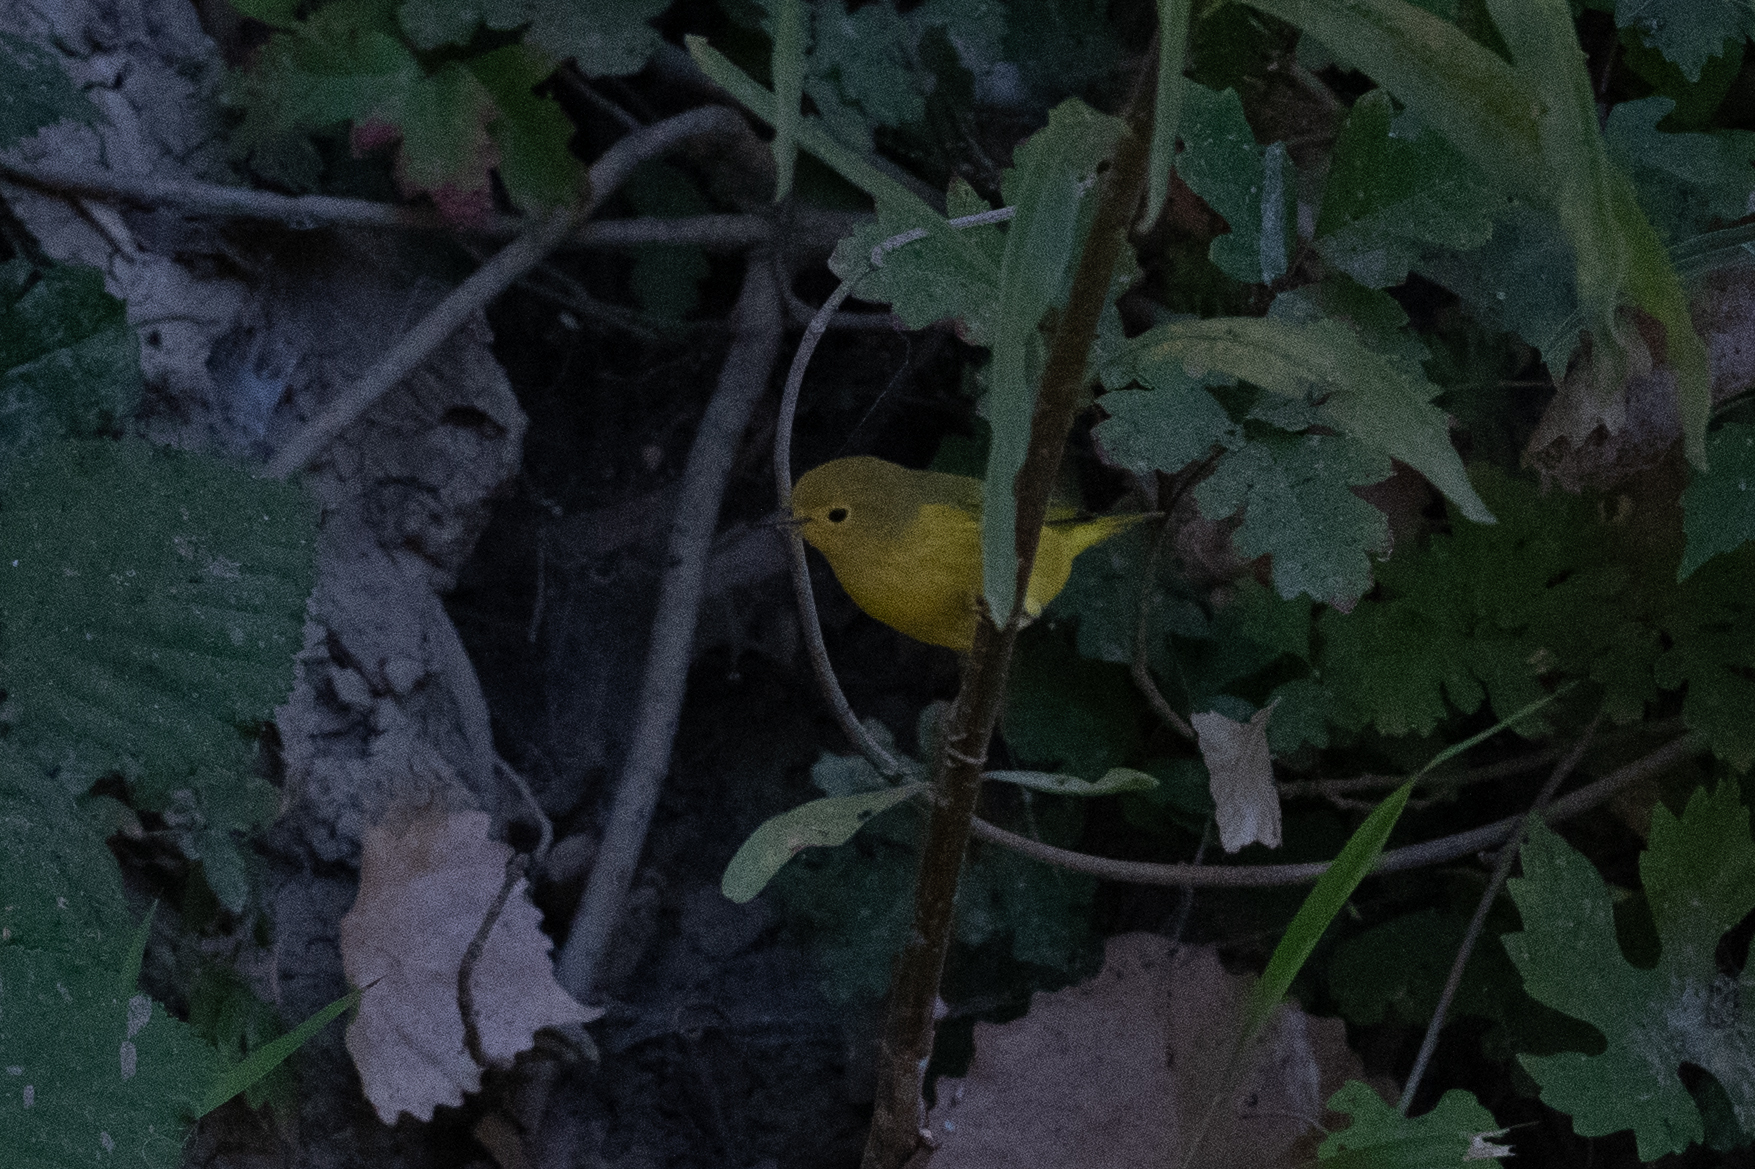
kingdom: Animalia
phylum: Chordata
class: Aves
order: Passeriformes
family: Parulidae
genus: Setophaga
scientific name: Setophaga petechia
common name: Yellow warbler
